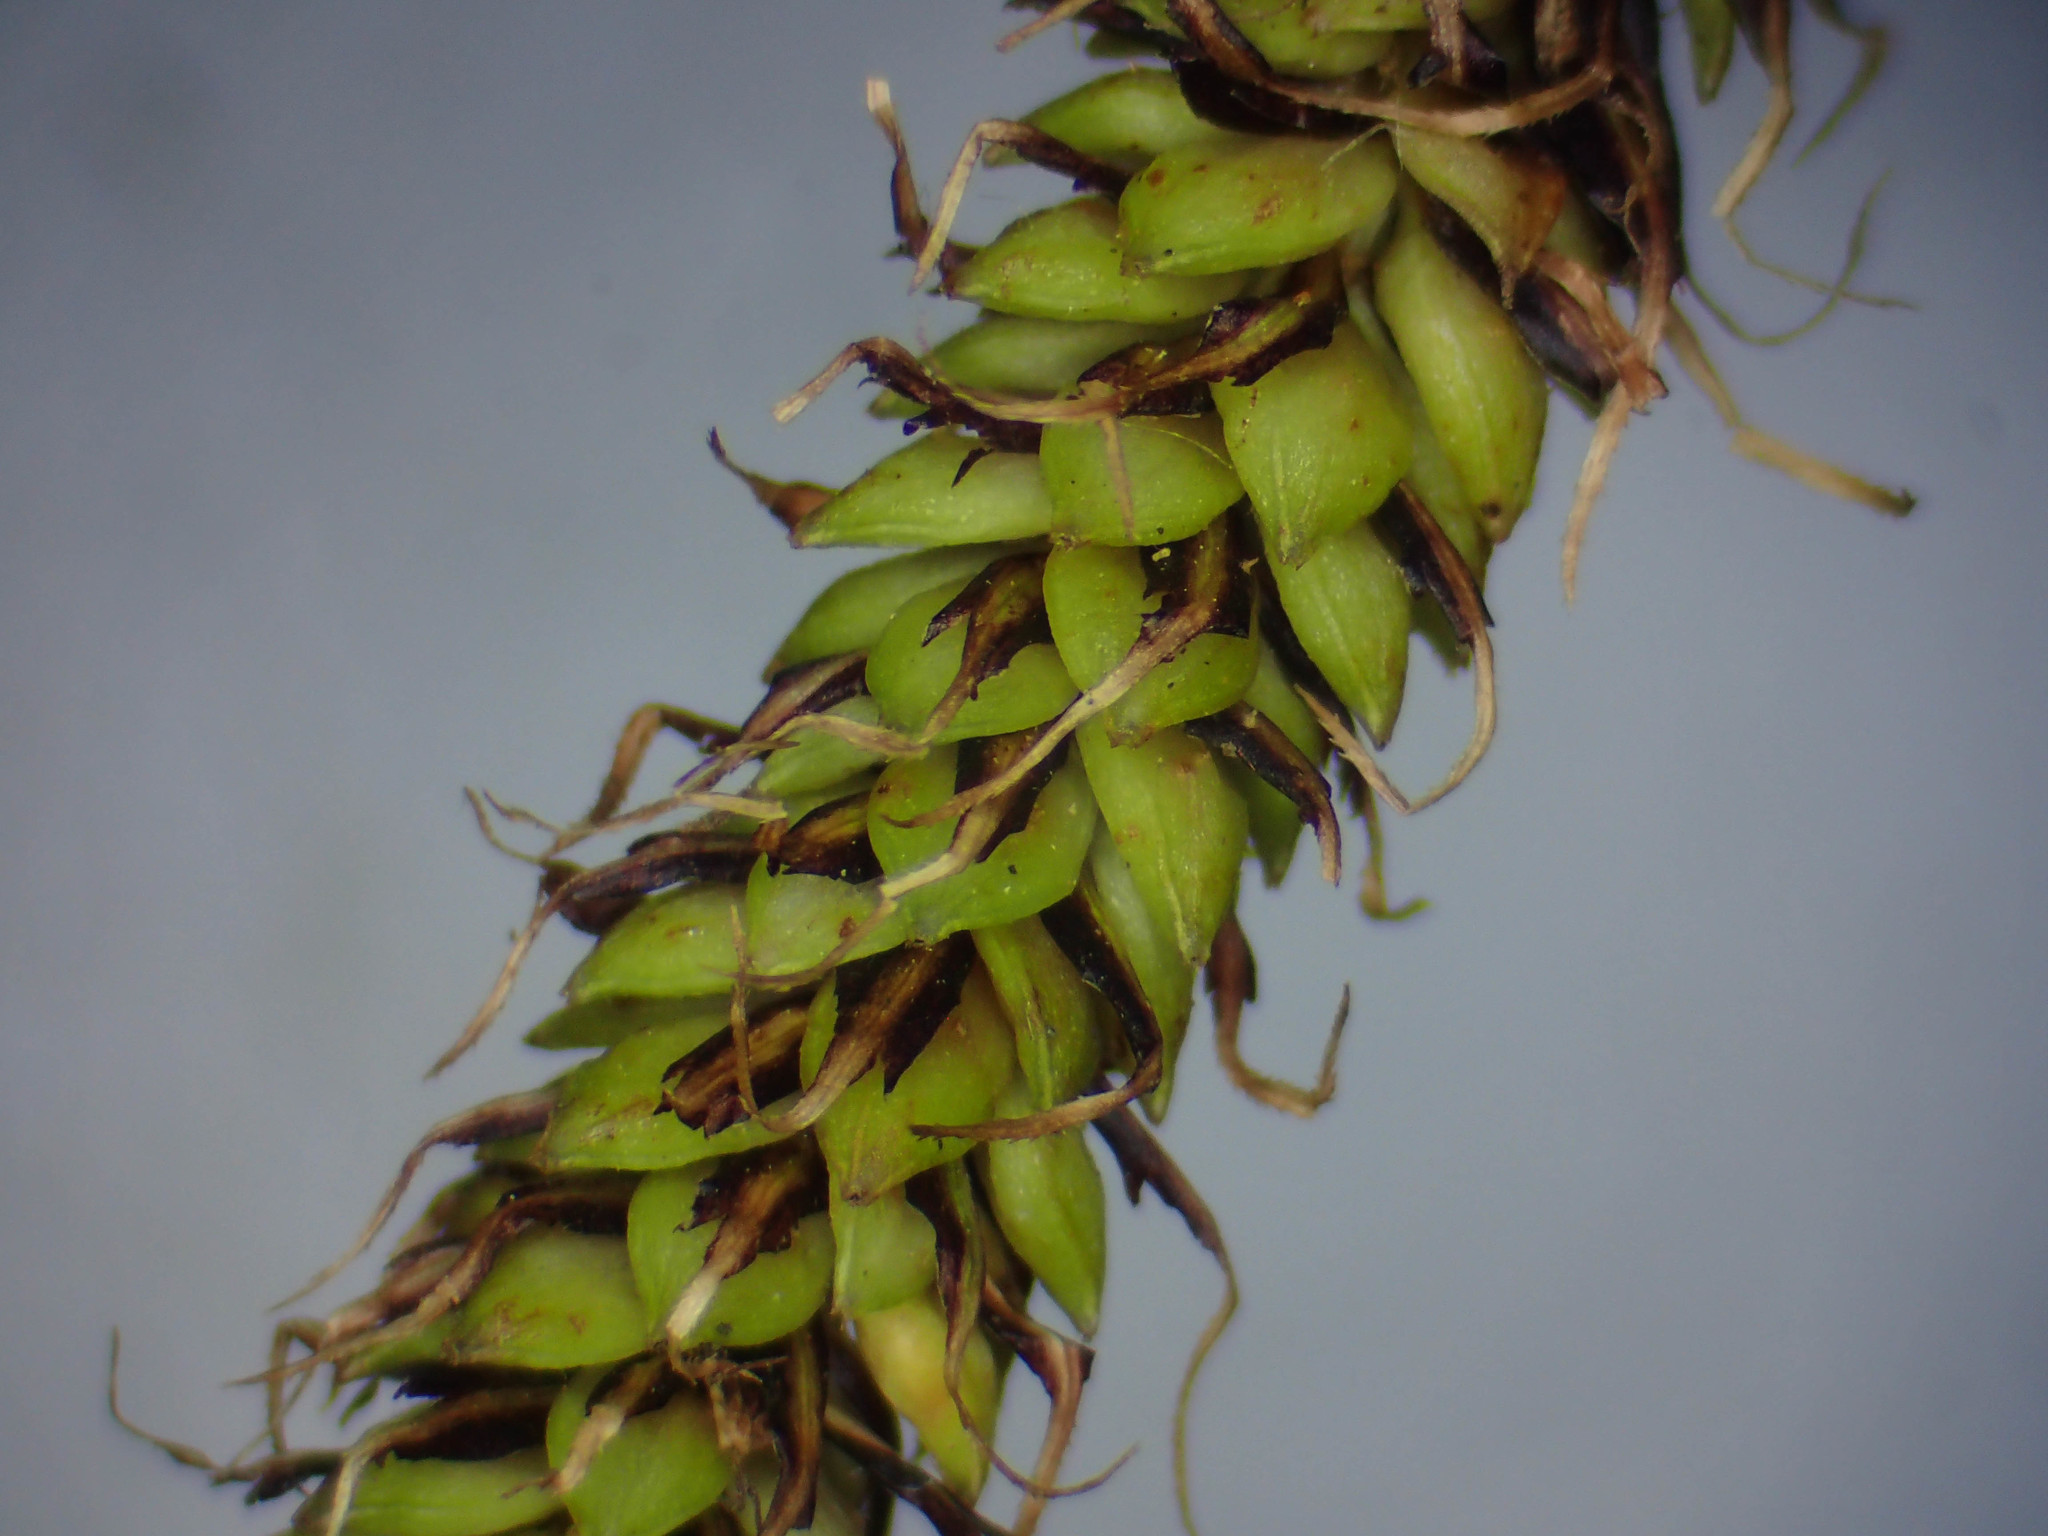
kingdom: Plantae
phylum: Tracheophyta
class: Liliopsida
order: Poales
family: Cyperaceae
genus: Carex
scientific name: Carex coriacea
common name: Rautahi
